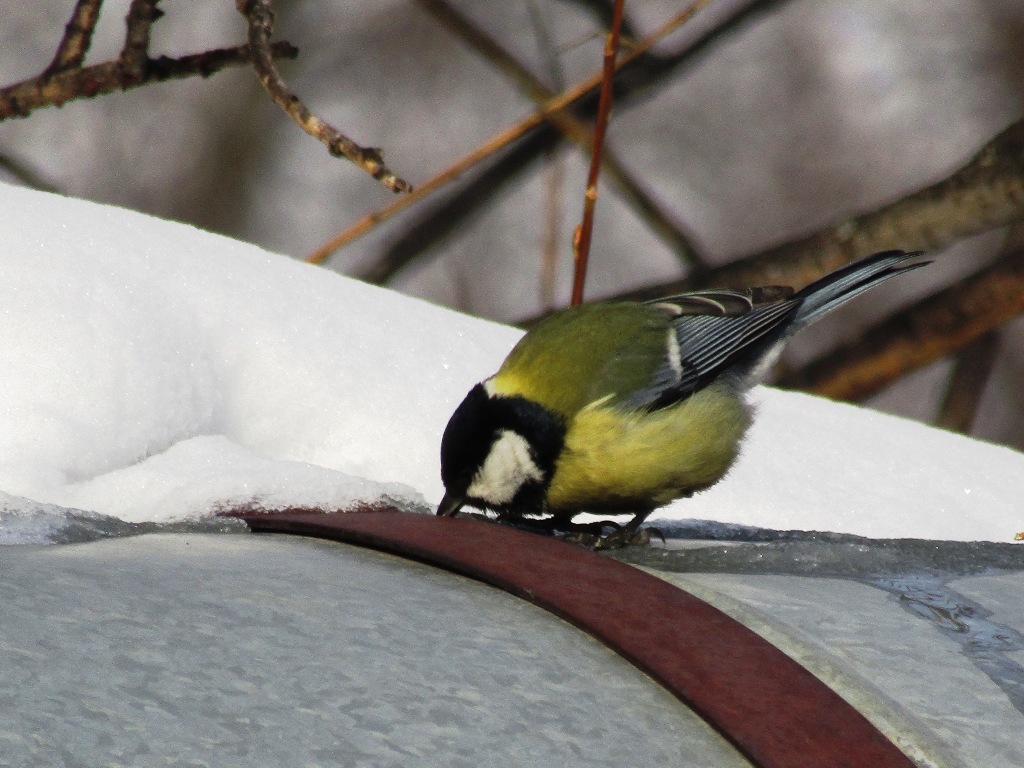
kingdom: Animalia
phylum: Chordata
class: Aves
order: Passeriformes
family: Paridae
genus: Parus
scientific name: Parus major
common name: Great tit
